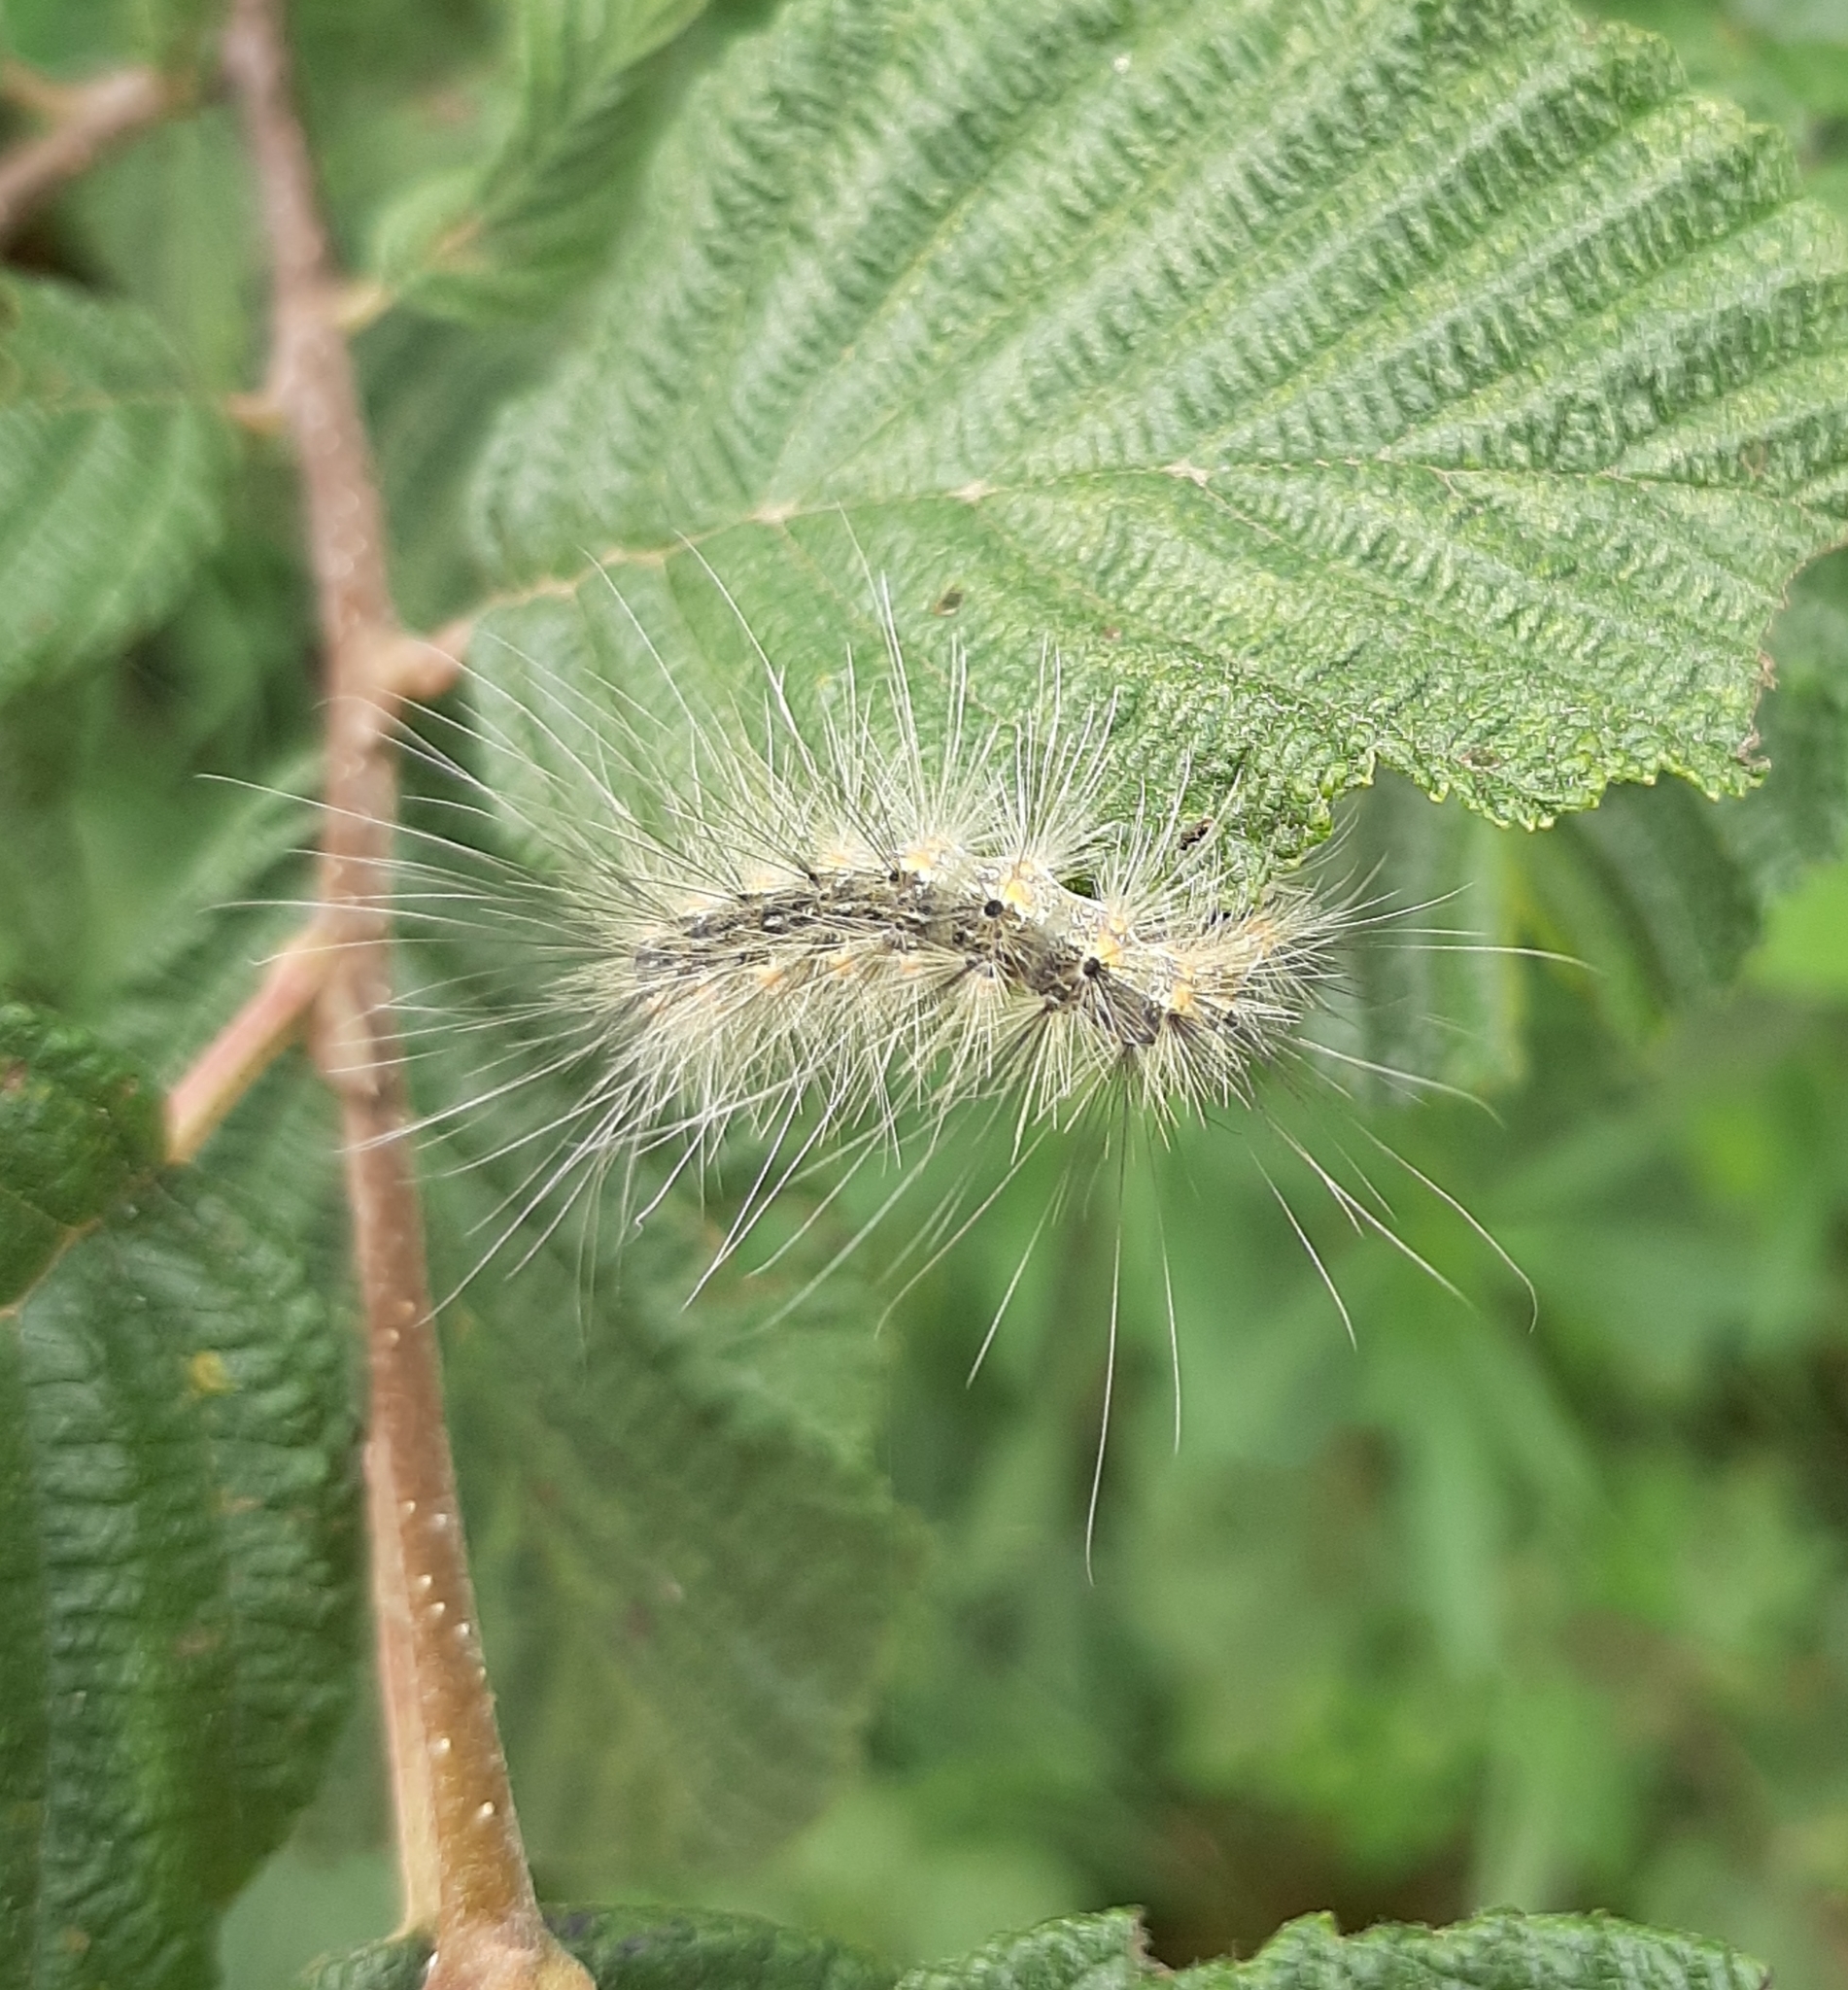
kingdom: Animalia
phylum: Arthropoda
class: Insecta
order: Lepidoptera
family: Erebidae
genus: Hyphantria
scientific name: Hyphantria cunea
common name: American white moth
